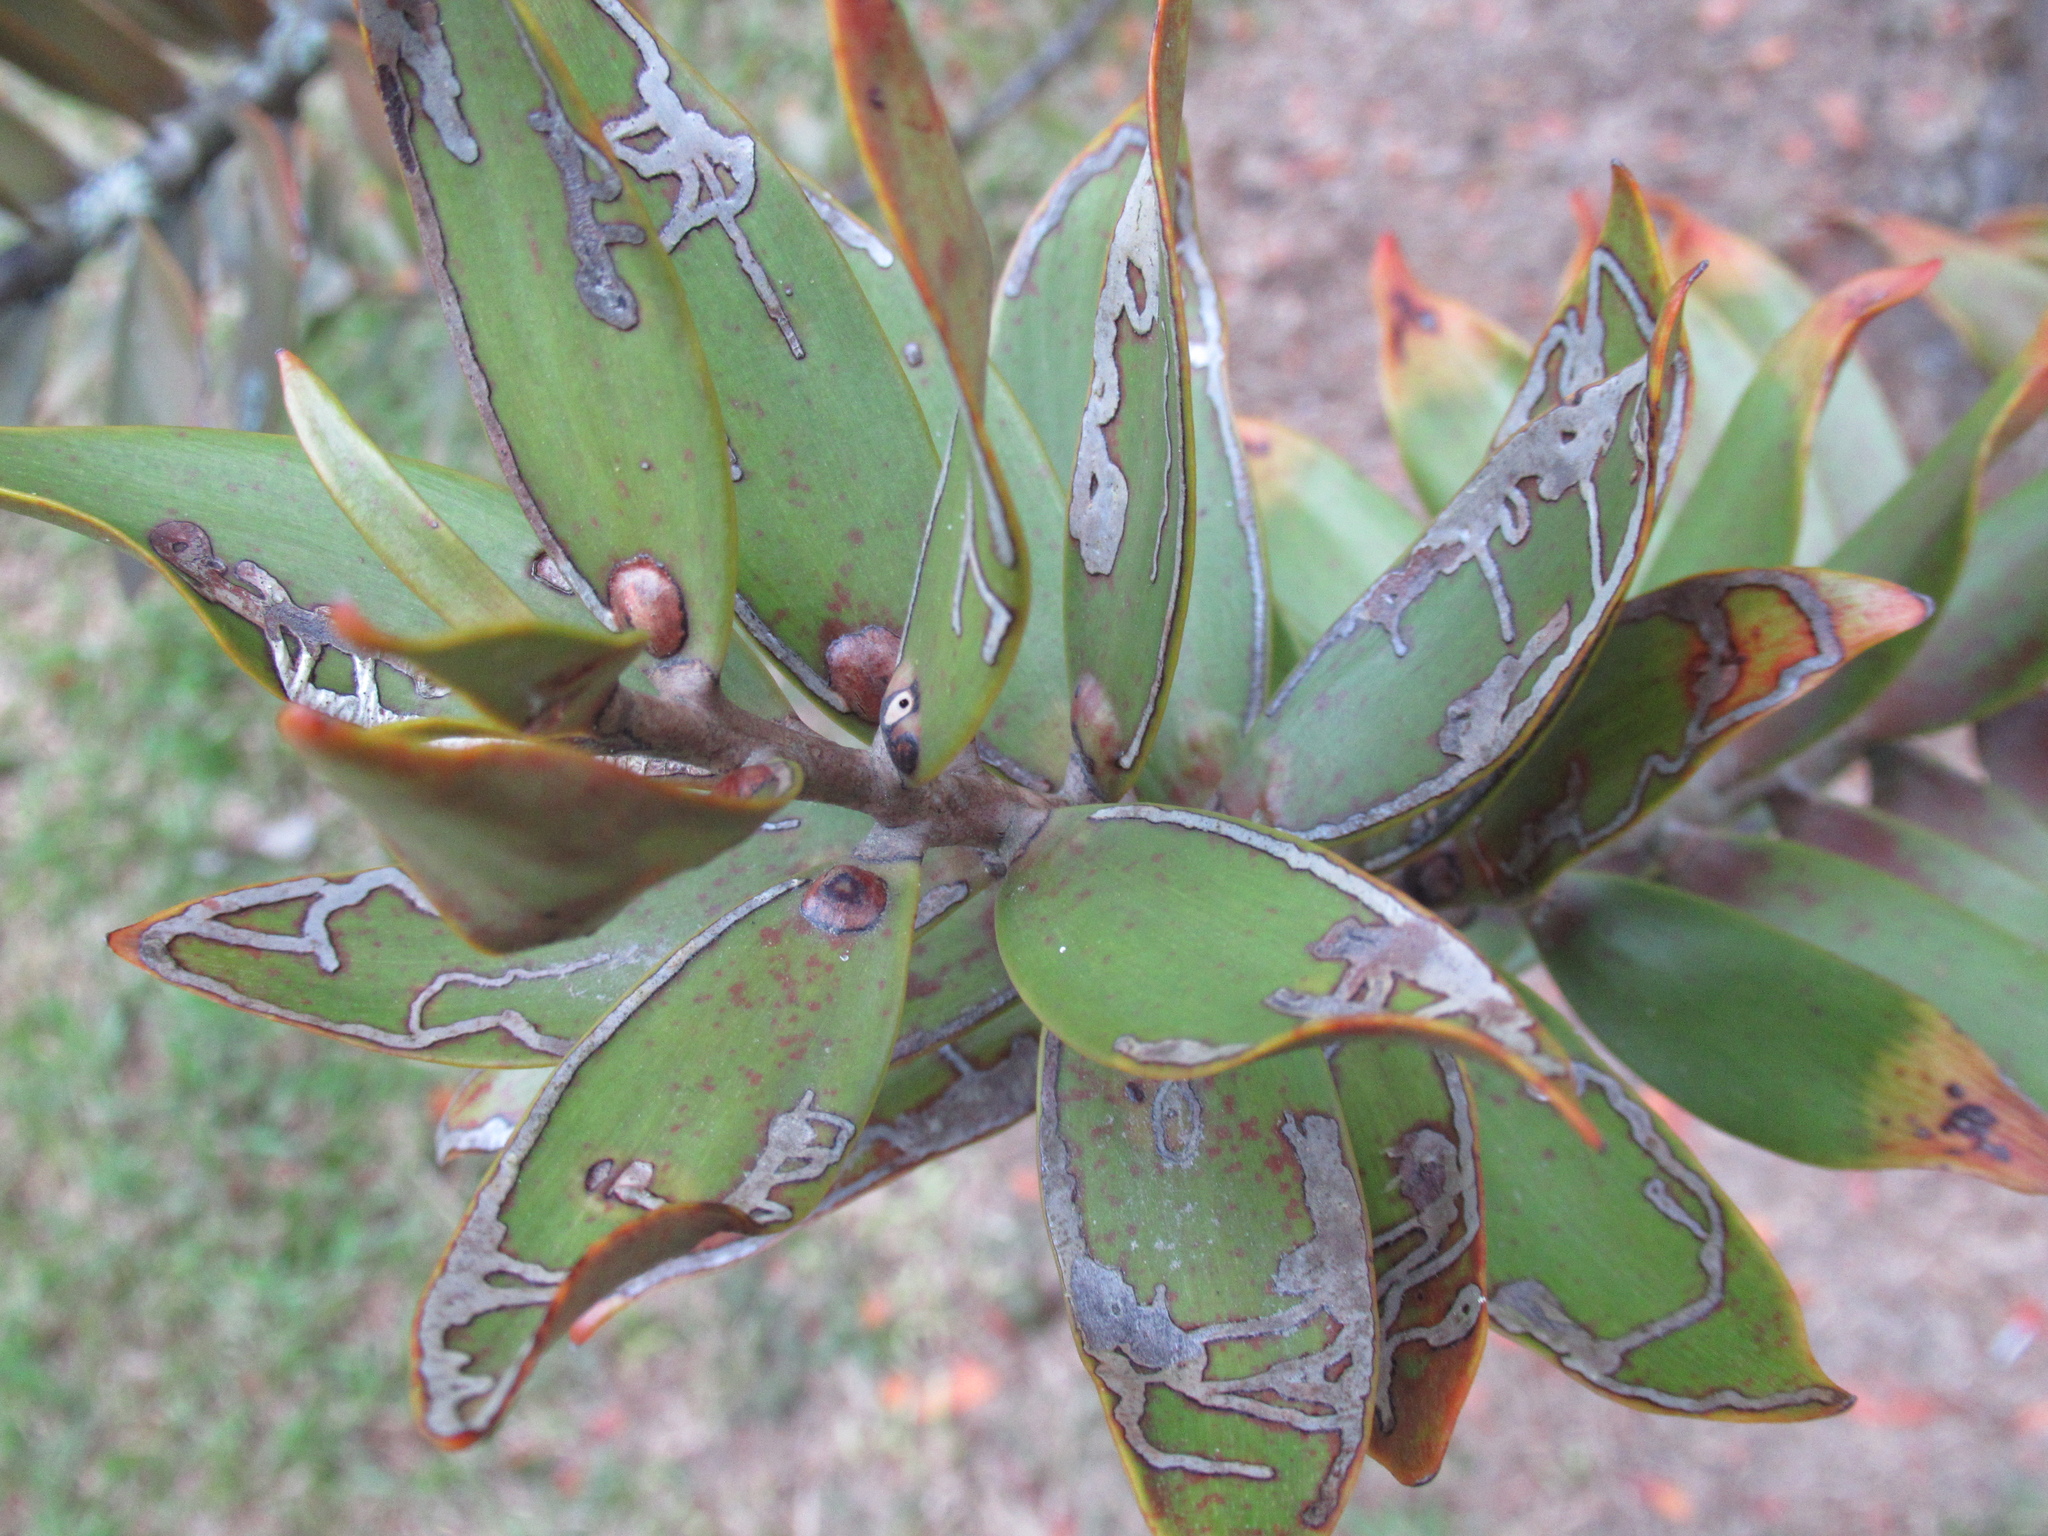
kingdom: Animalia
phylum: Arthropoda
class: Insecta
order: Lepidoptera
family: Gracillariidae
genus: Acrocercops
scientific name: Acrocercops leucotoma
